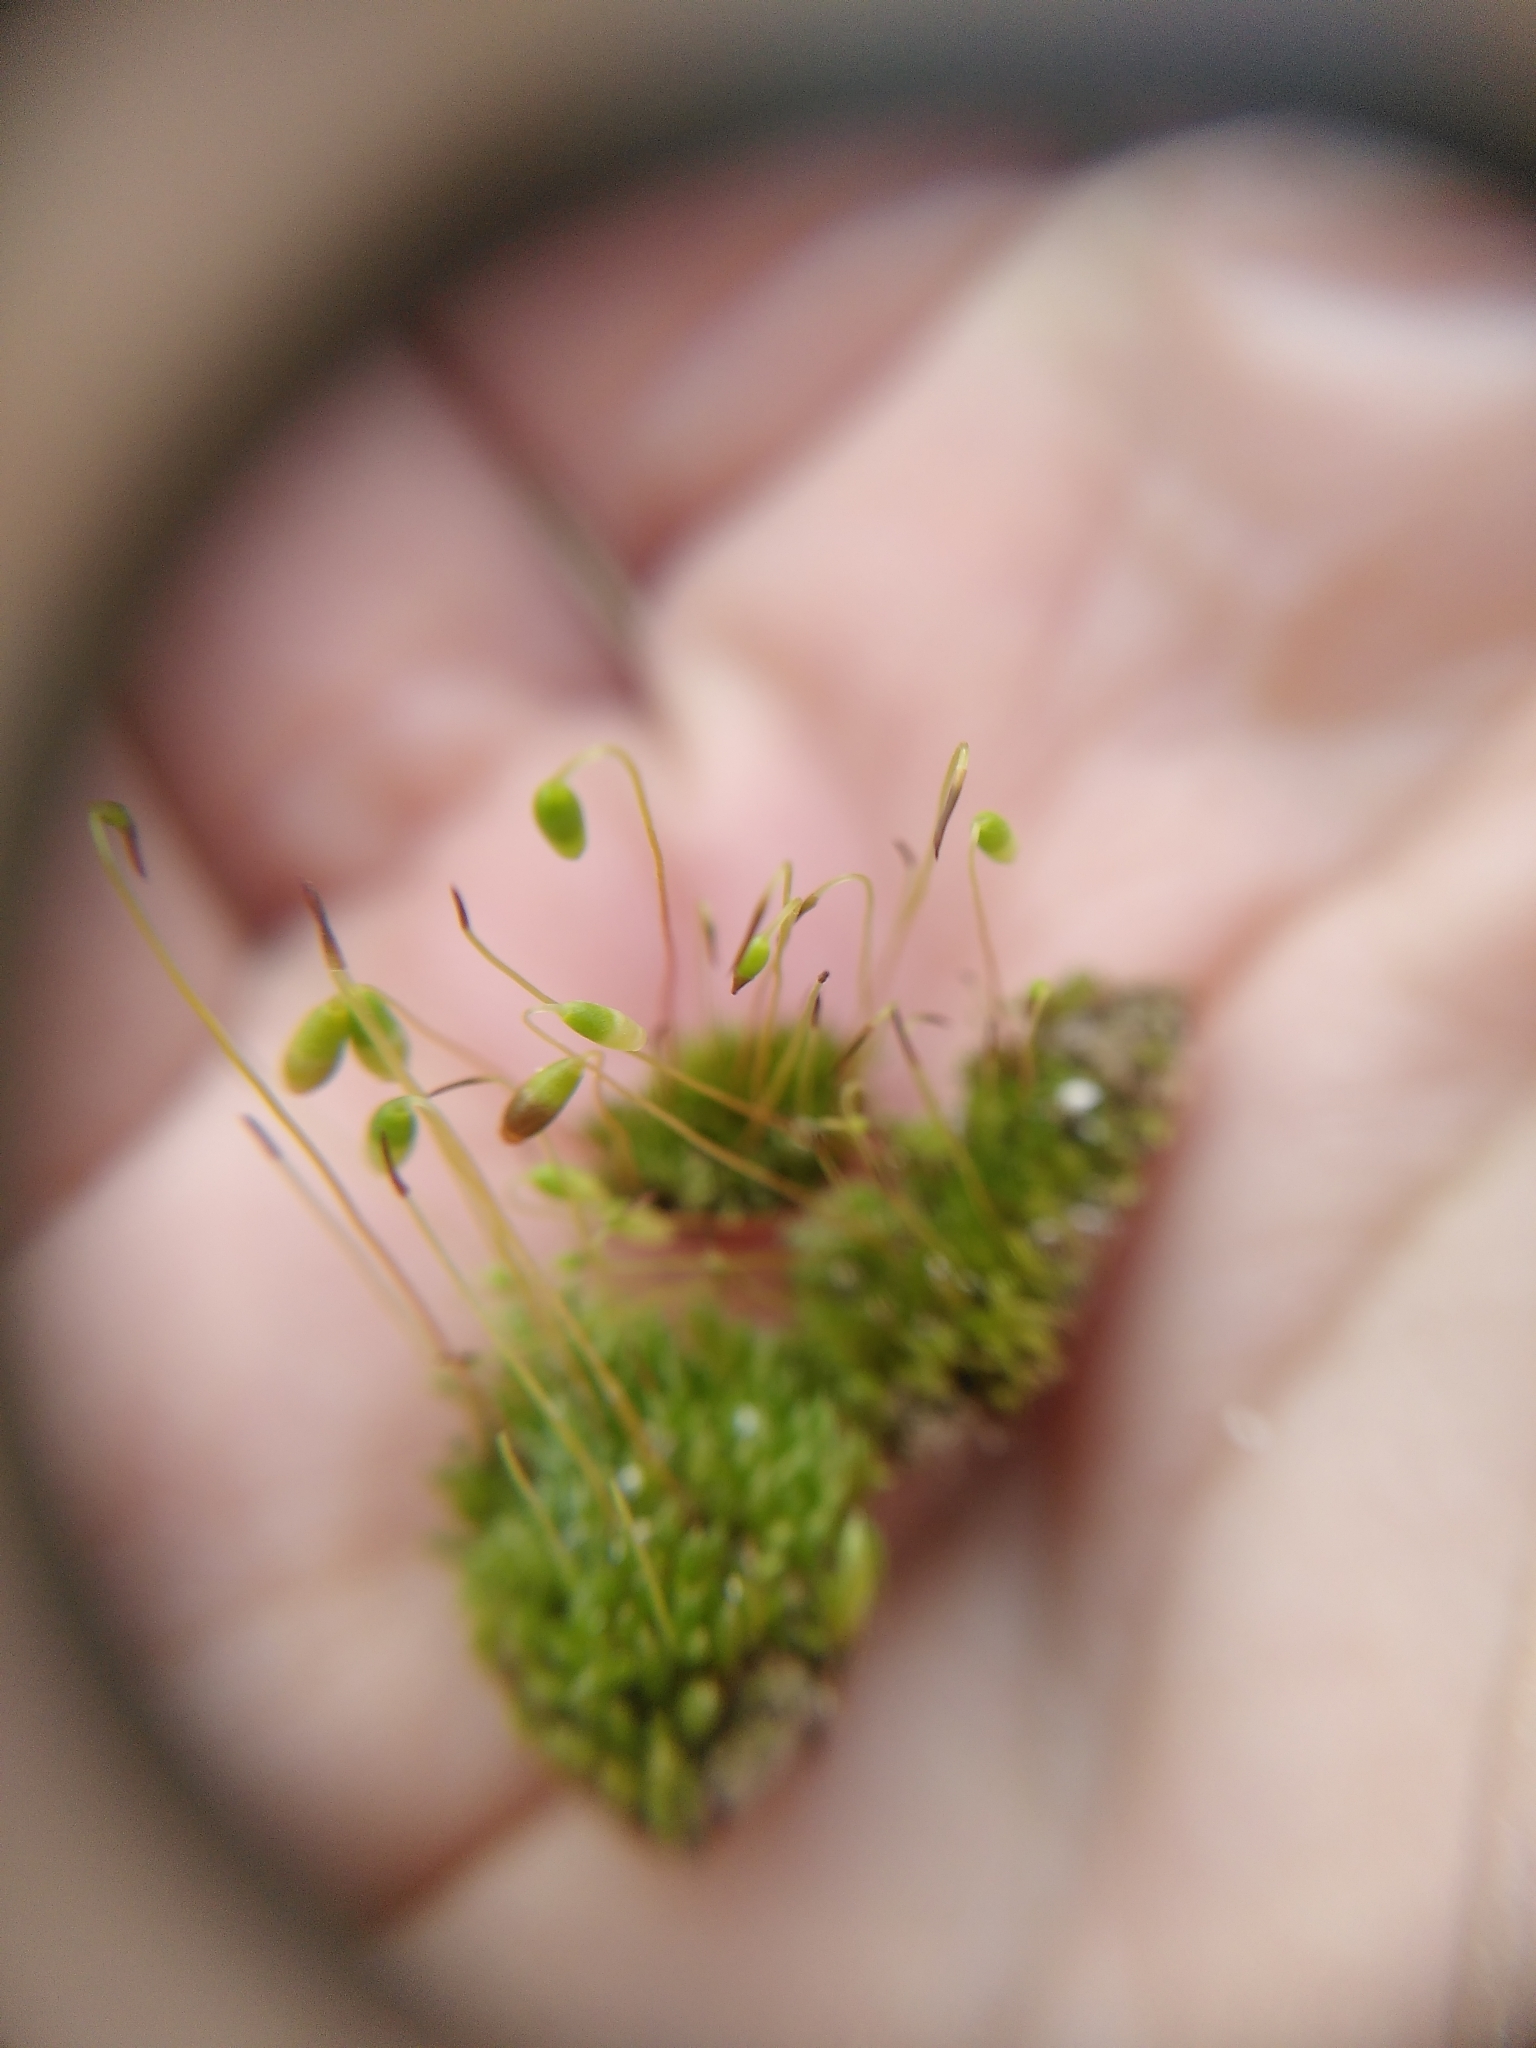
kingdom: Plantae
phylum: Bryophyta
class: Bryopsida
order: Bryales
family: Bryaceae
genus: Gemmabryum
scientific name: Gemmabryum dichotomum
